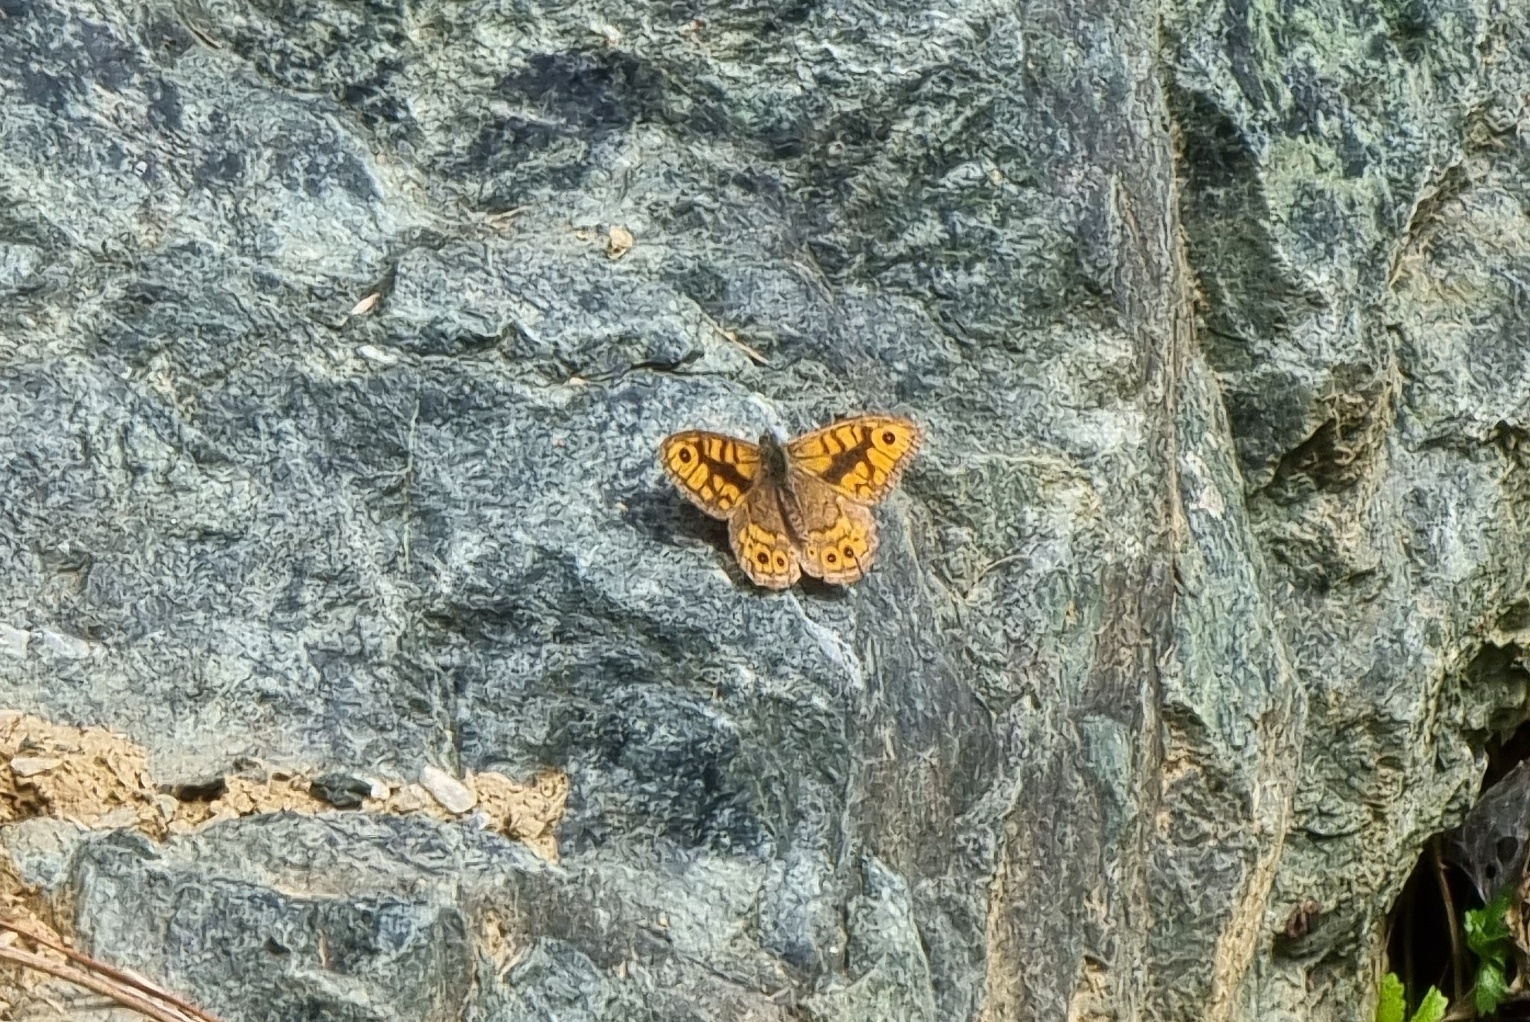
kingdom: Animalia
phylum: Arthropoda
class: Insecta
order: Lepidoptera
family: Nymphalidae
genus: Pararge
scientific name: Pararge Lasiommata megera
